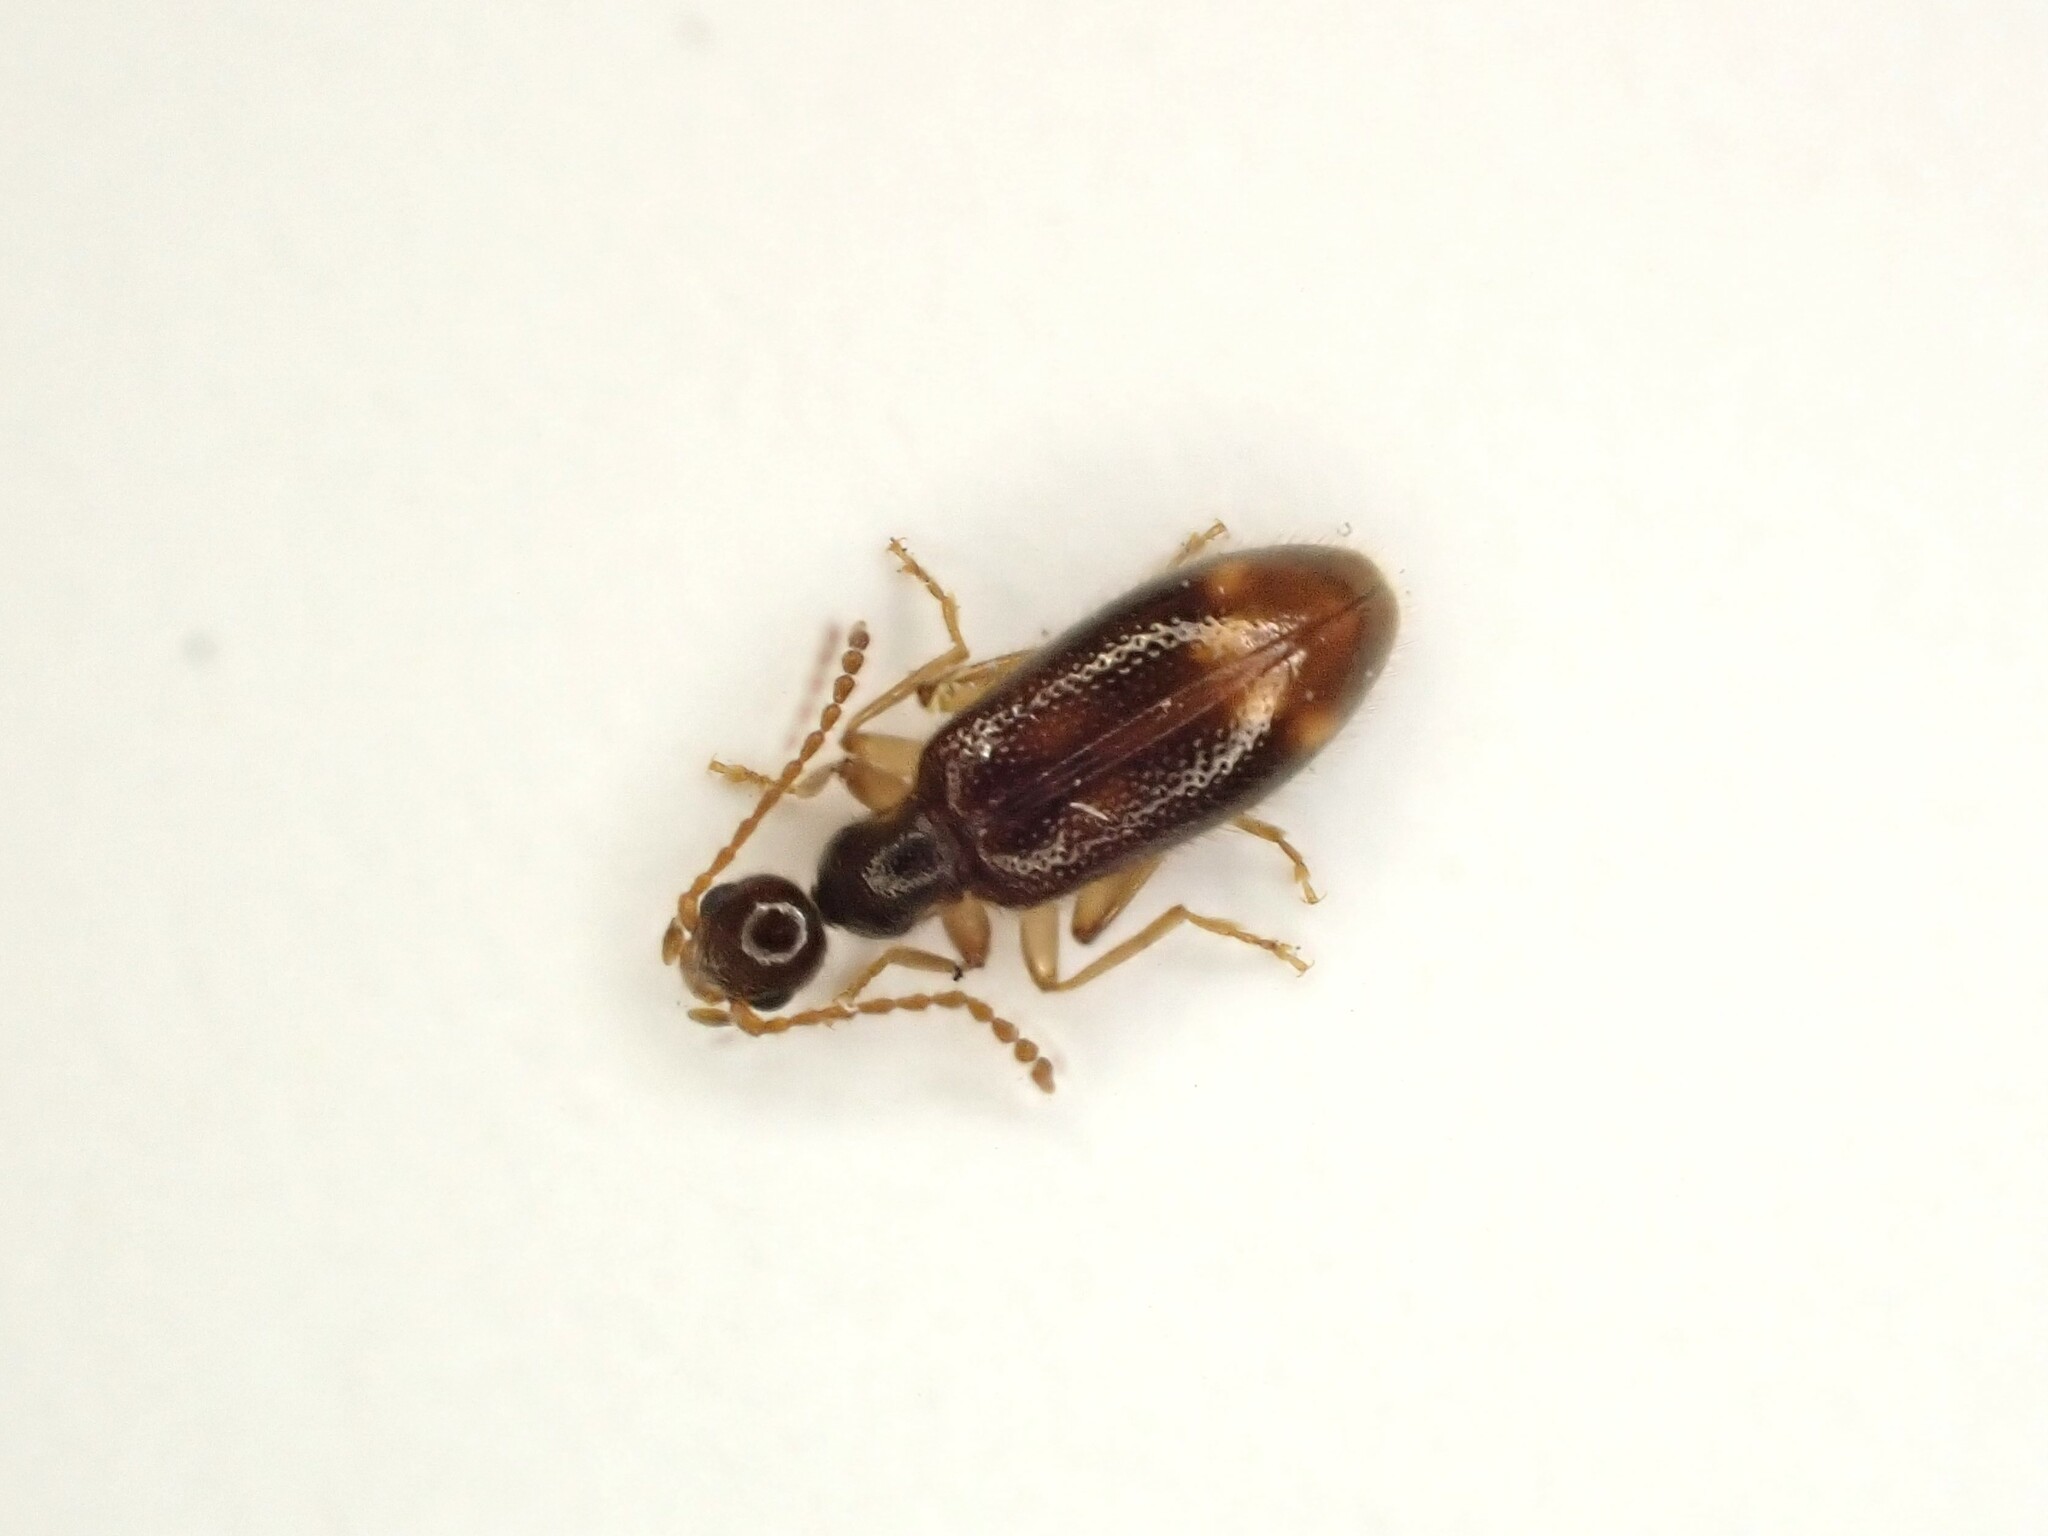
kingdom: Animalia
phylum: Arthropoda
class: Insecta
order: Coleoptera
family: Anthicidae
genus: Sapintus
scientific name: Sapintus pellucidipes
